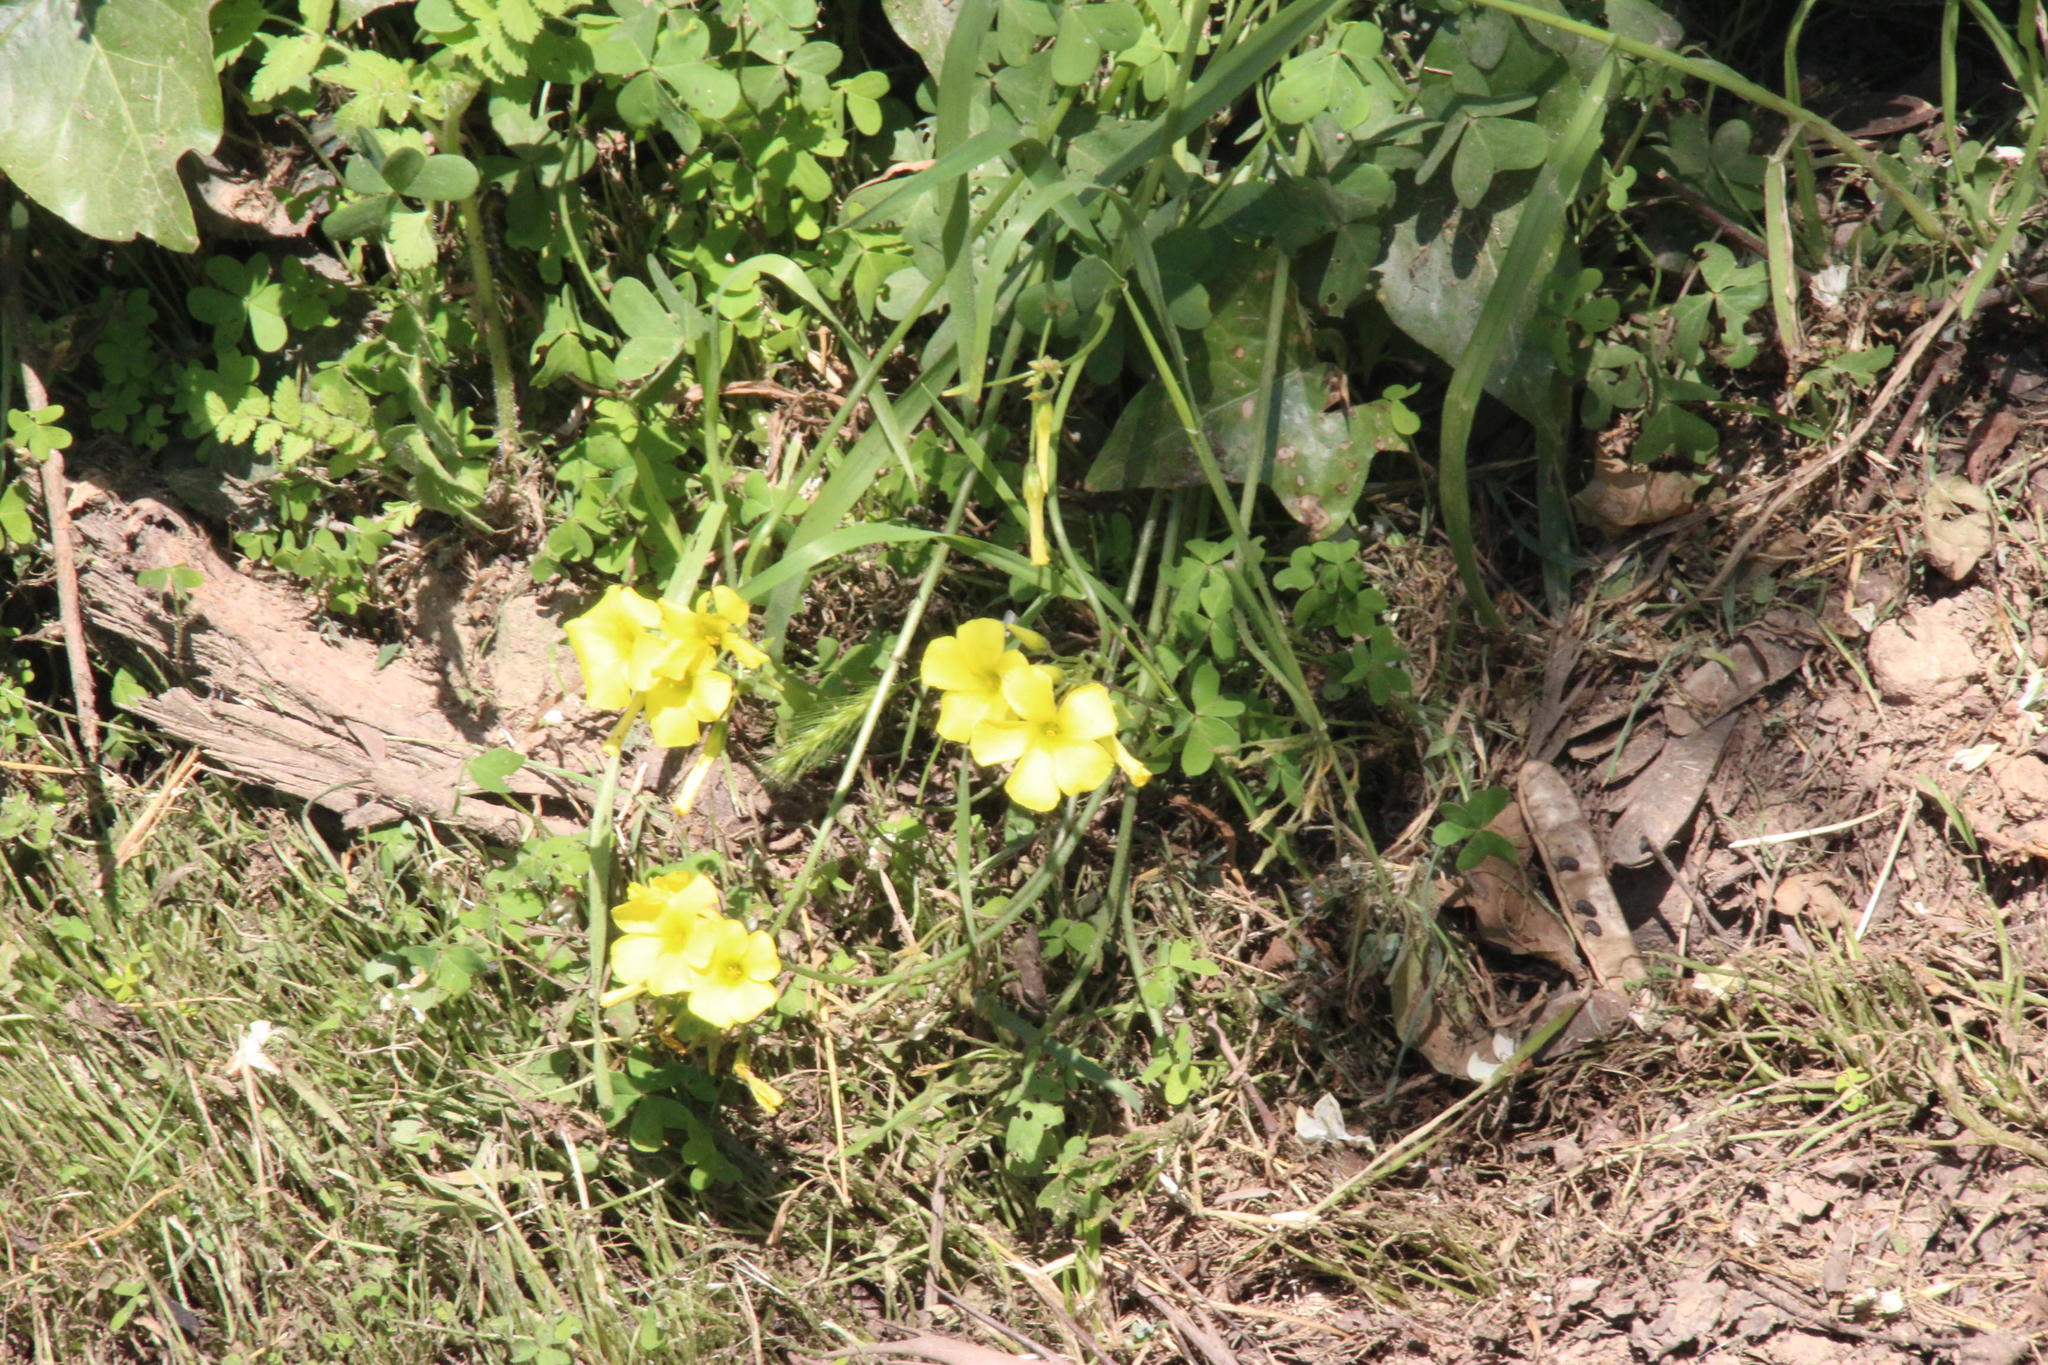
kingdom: Plantae
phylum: Tracheophyta
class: Magnoliopsida
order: Oxalidales
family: Oxalidaceae
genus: Oxalis
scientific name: Oxalis pes-caprae
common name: Bermuda-buttercup
